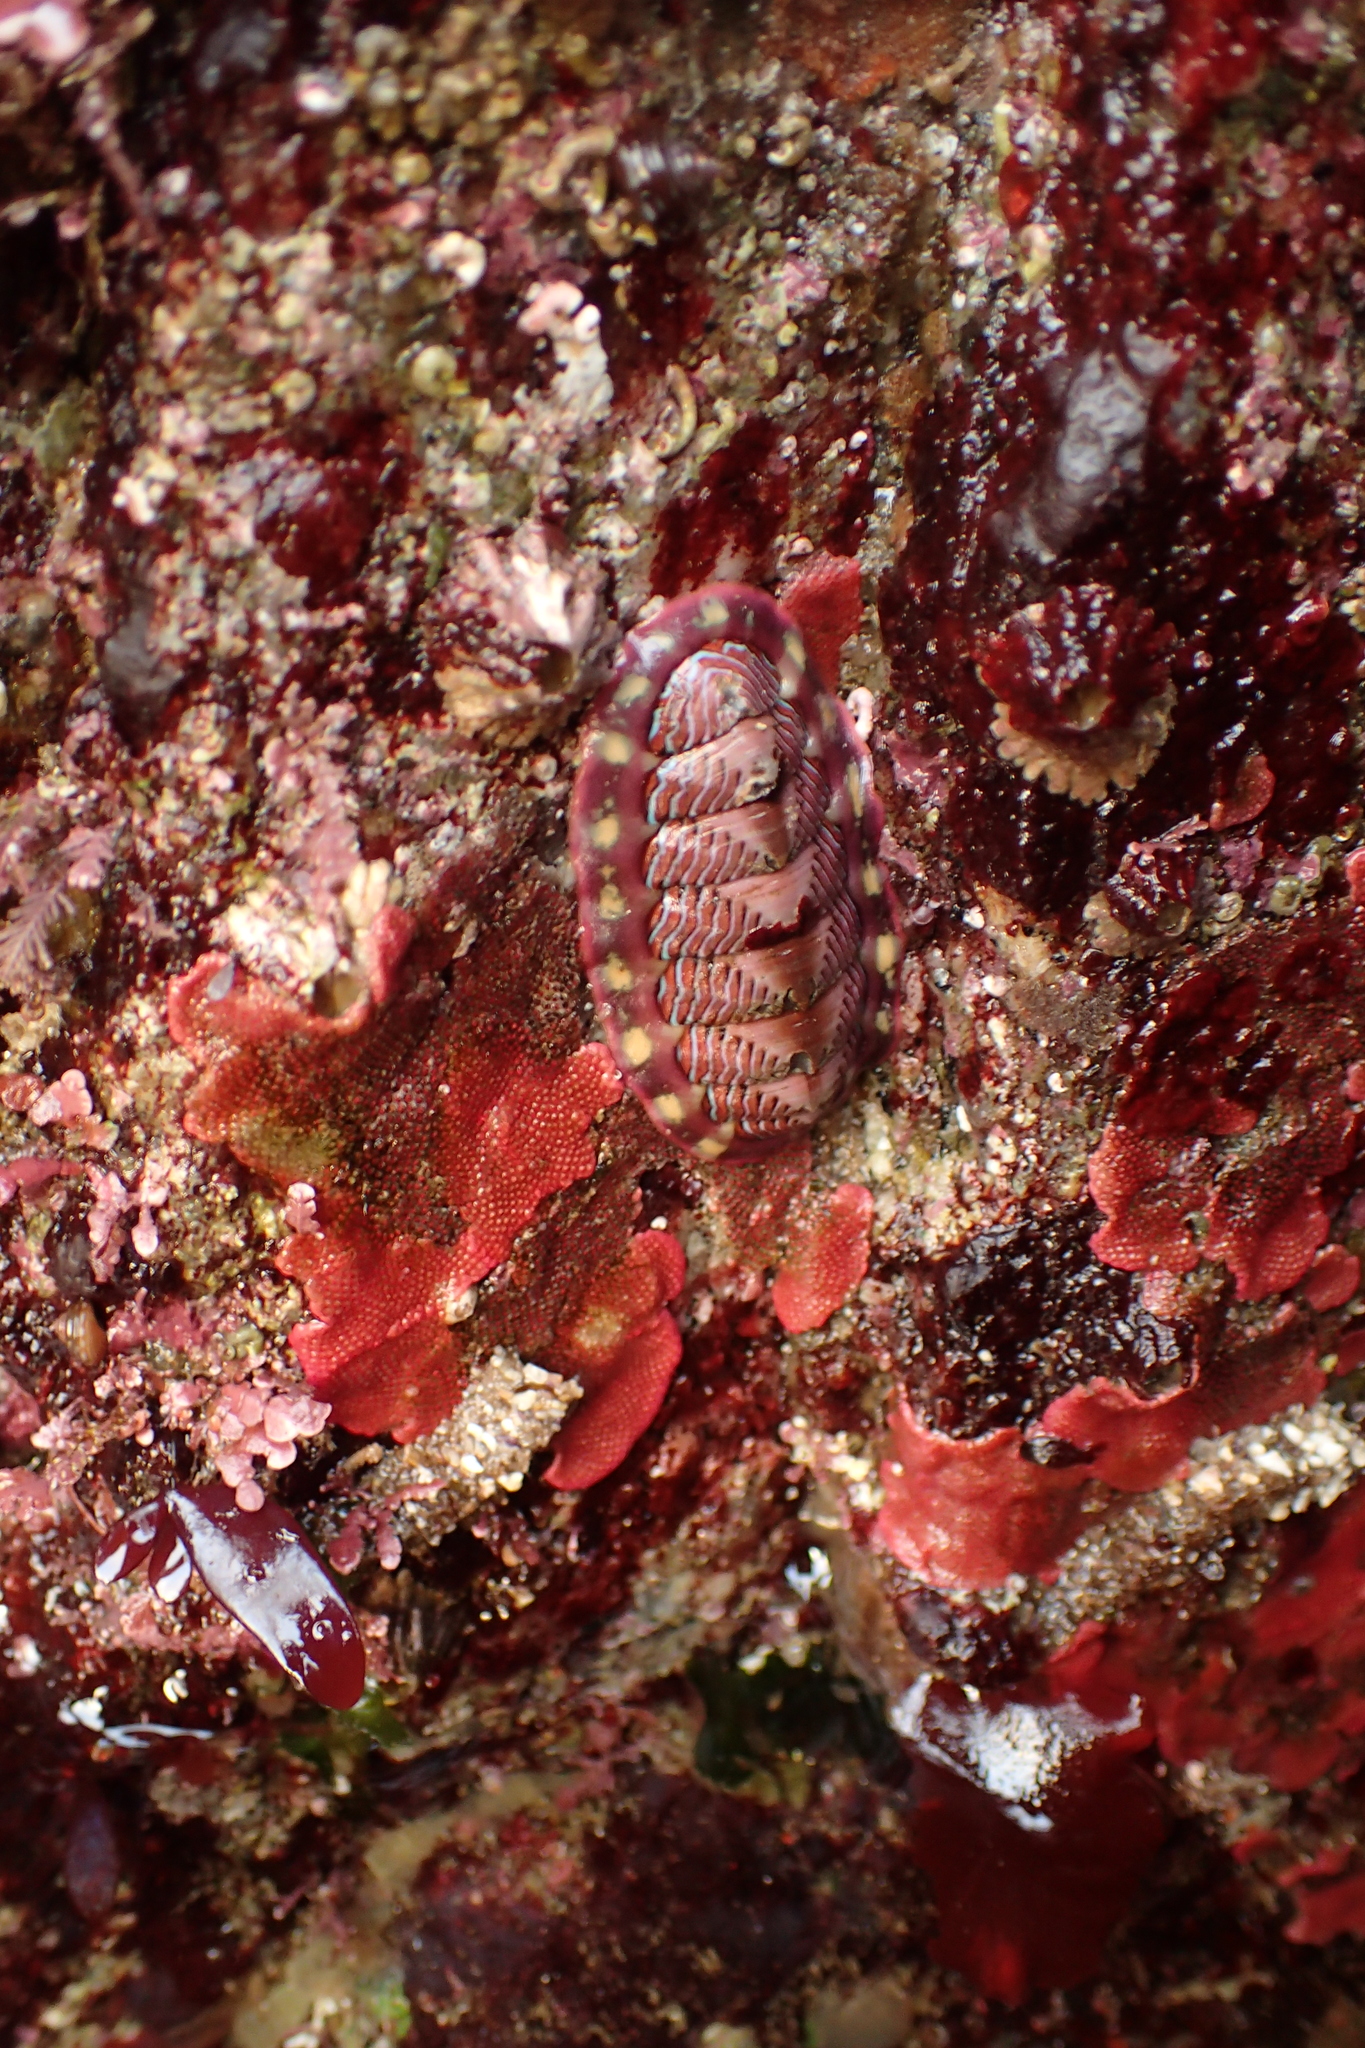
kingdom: Animalia
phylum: Mollusca
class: Polyplacophora
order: Chitonida
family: Tonicellidae
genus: Tonicella
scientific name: Tonicella lokii
